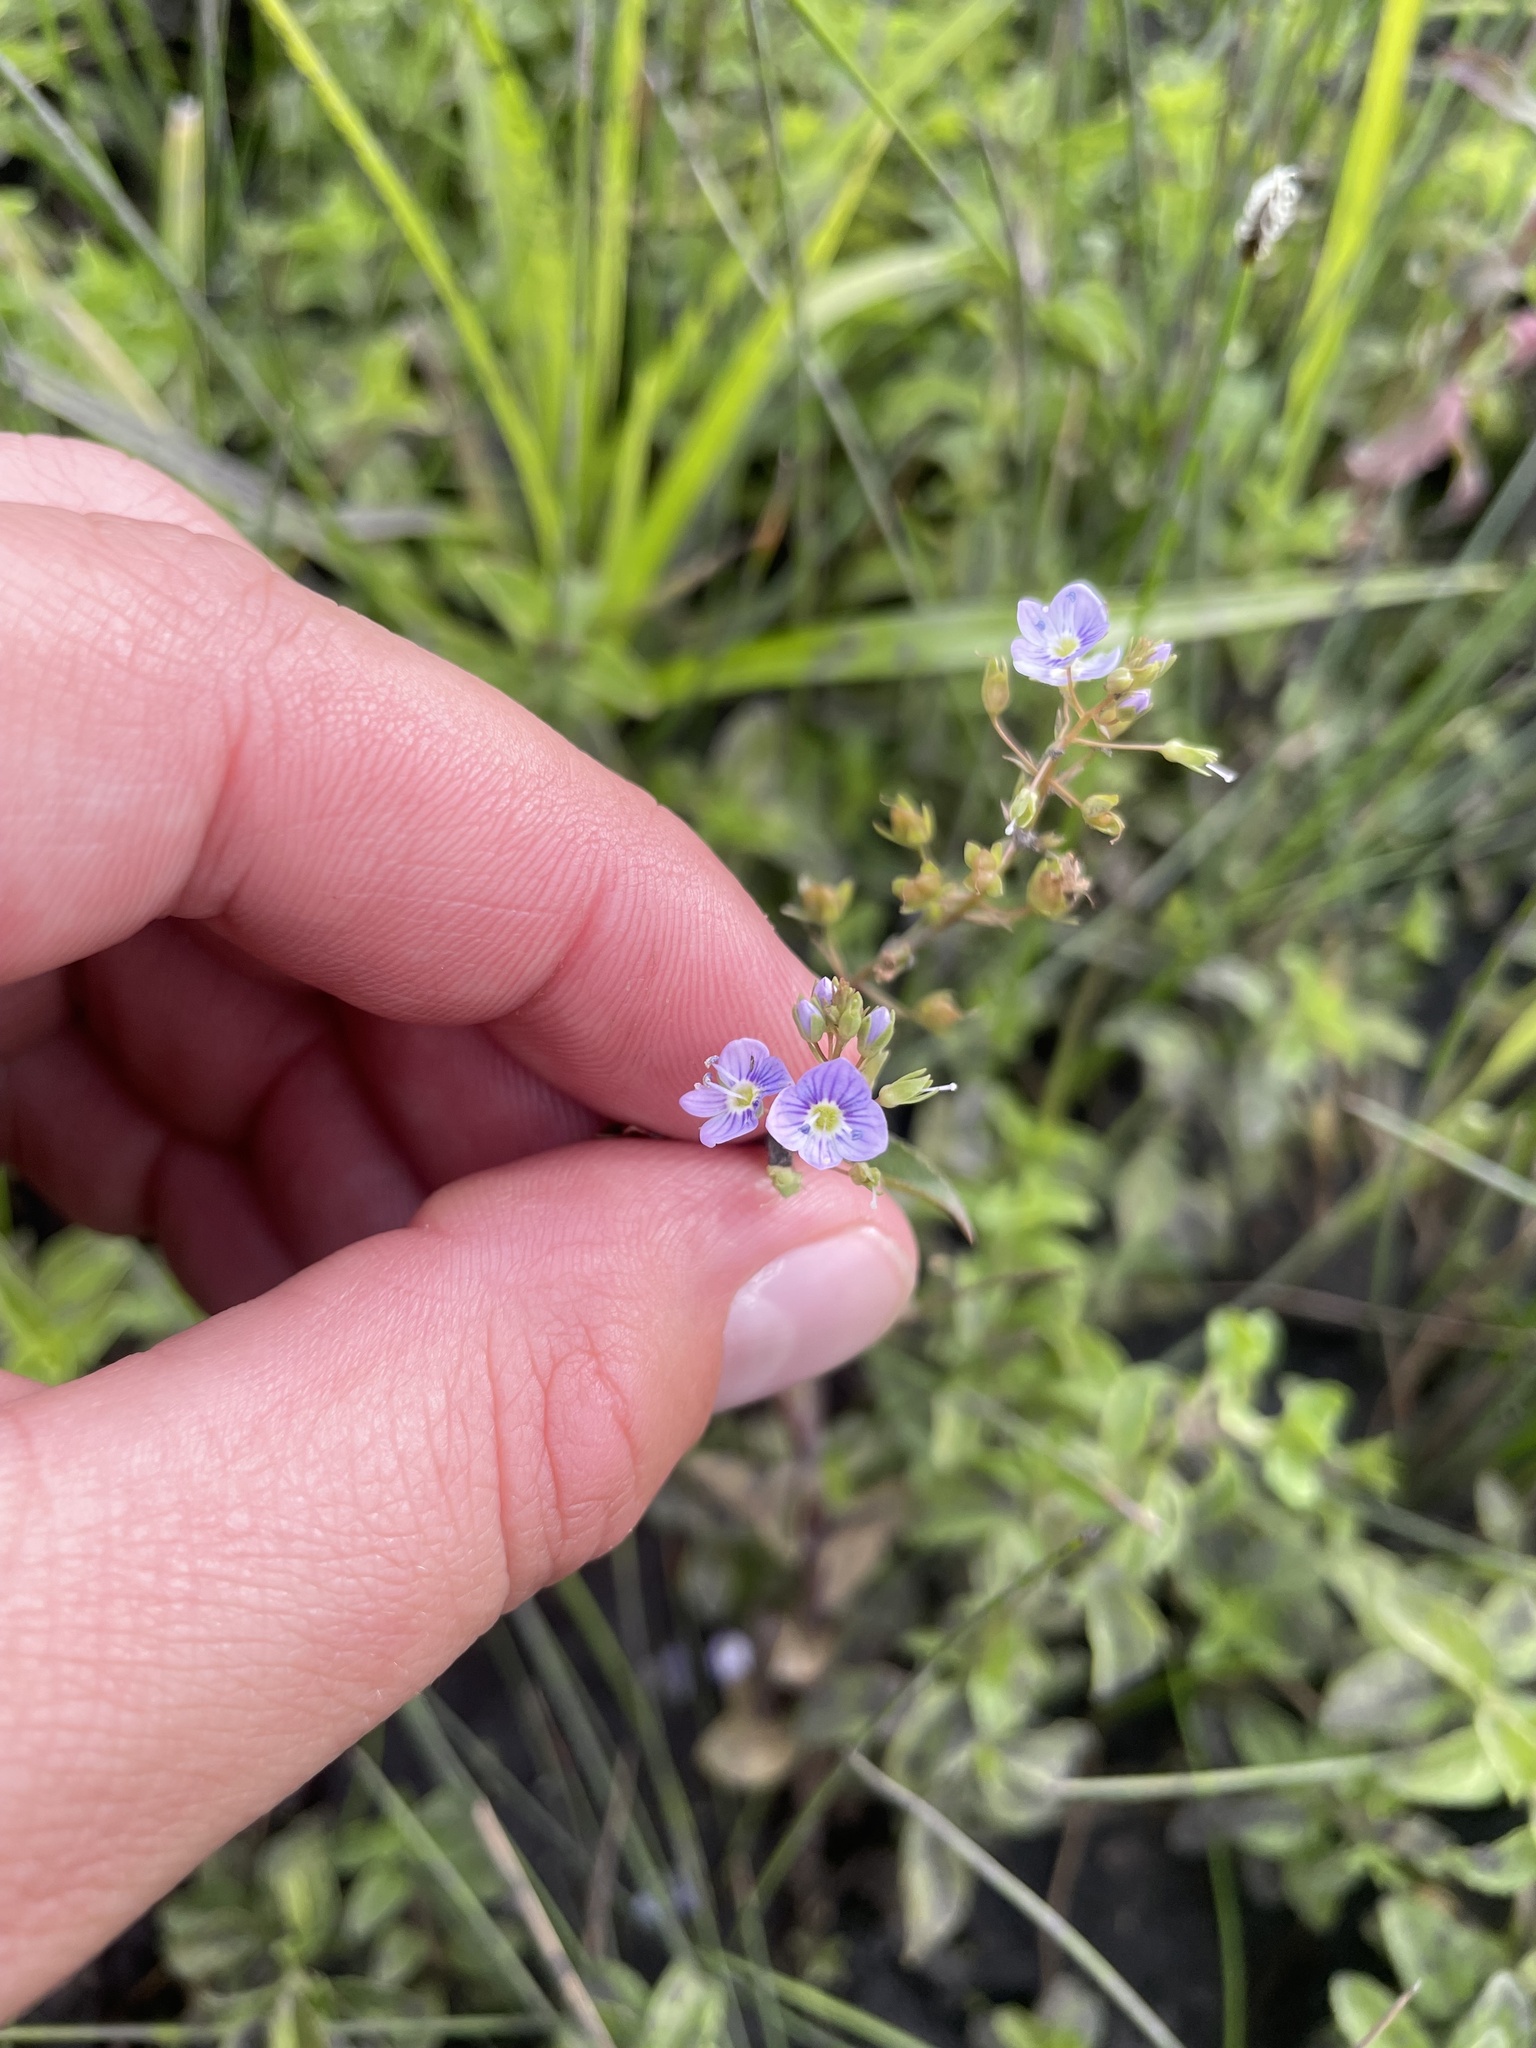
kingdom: Plantae
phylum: Tracheophyta
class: Magnoliopsida
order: Lamiales
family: Plantaginaceae
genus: Veronica
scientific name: Veronica anagallis-aquatica
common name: Water speedwell
